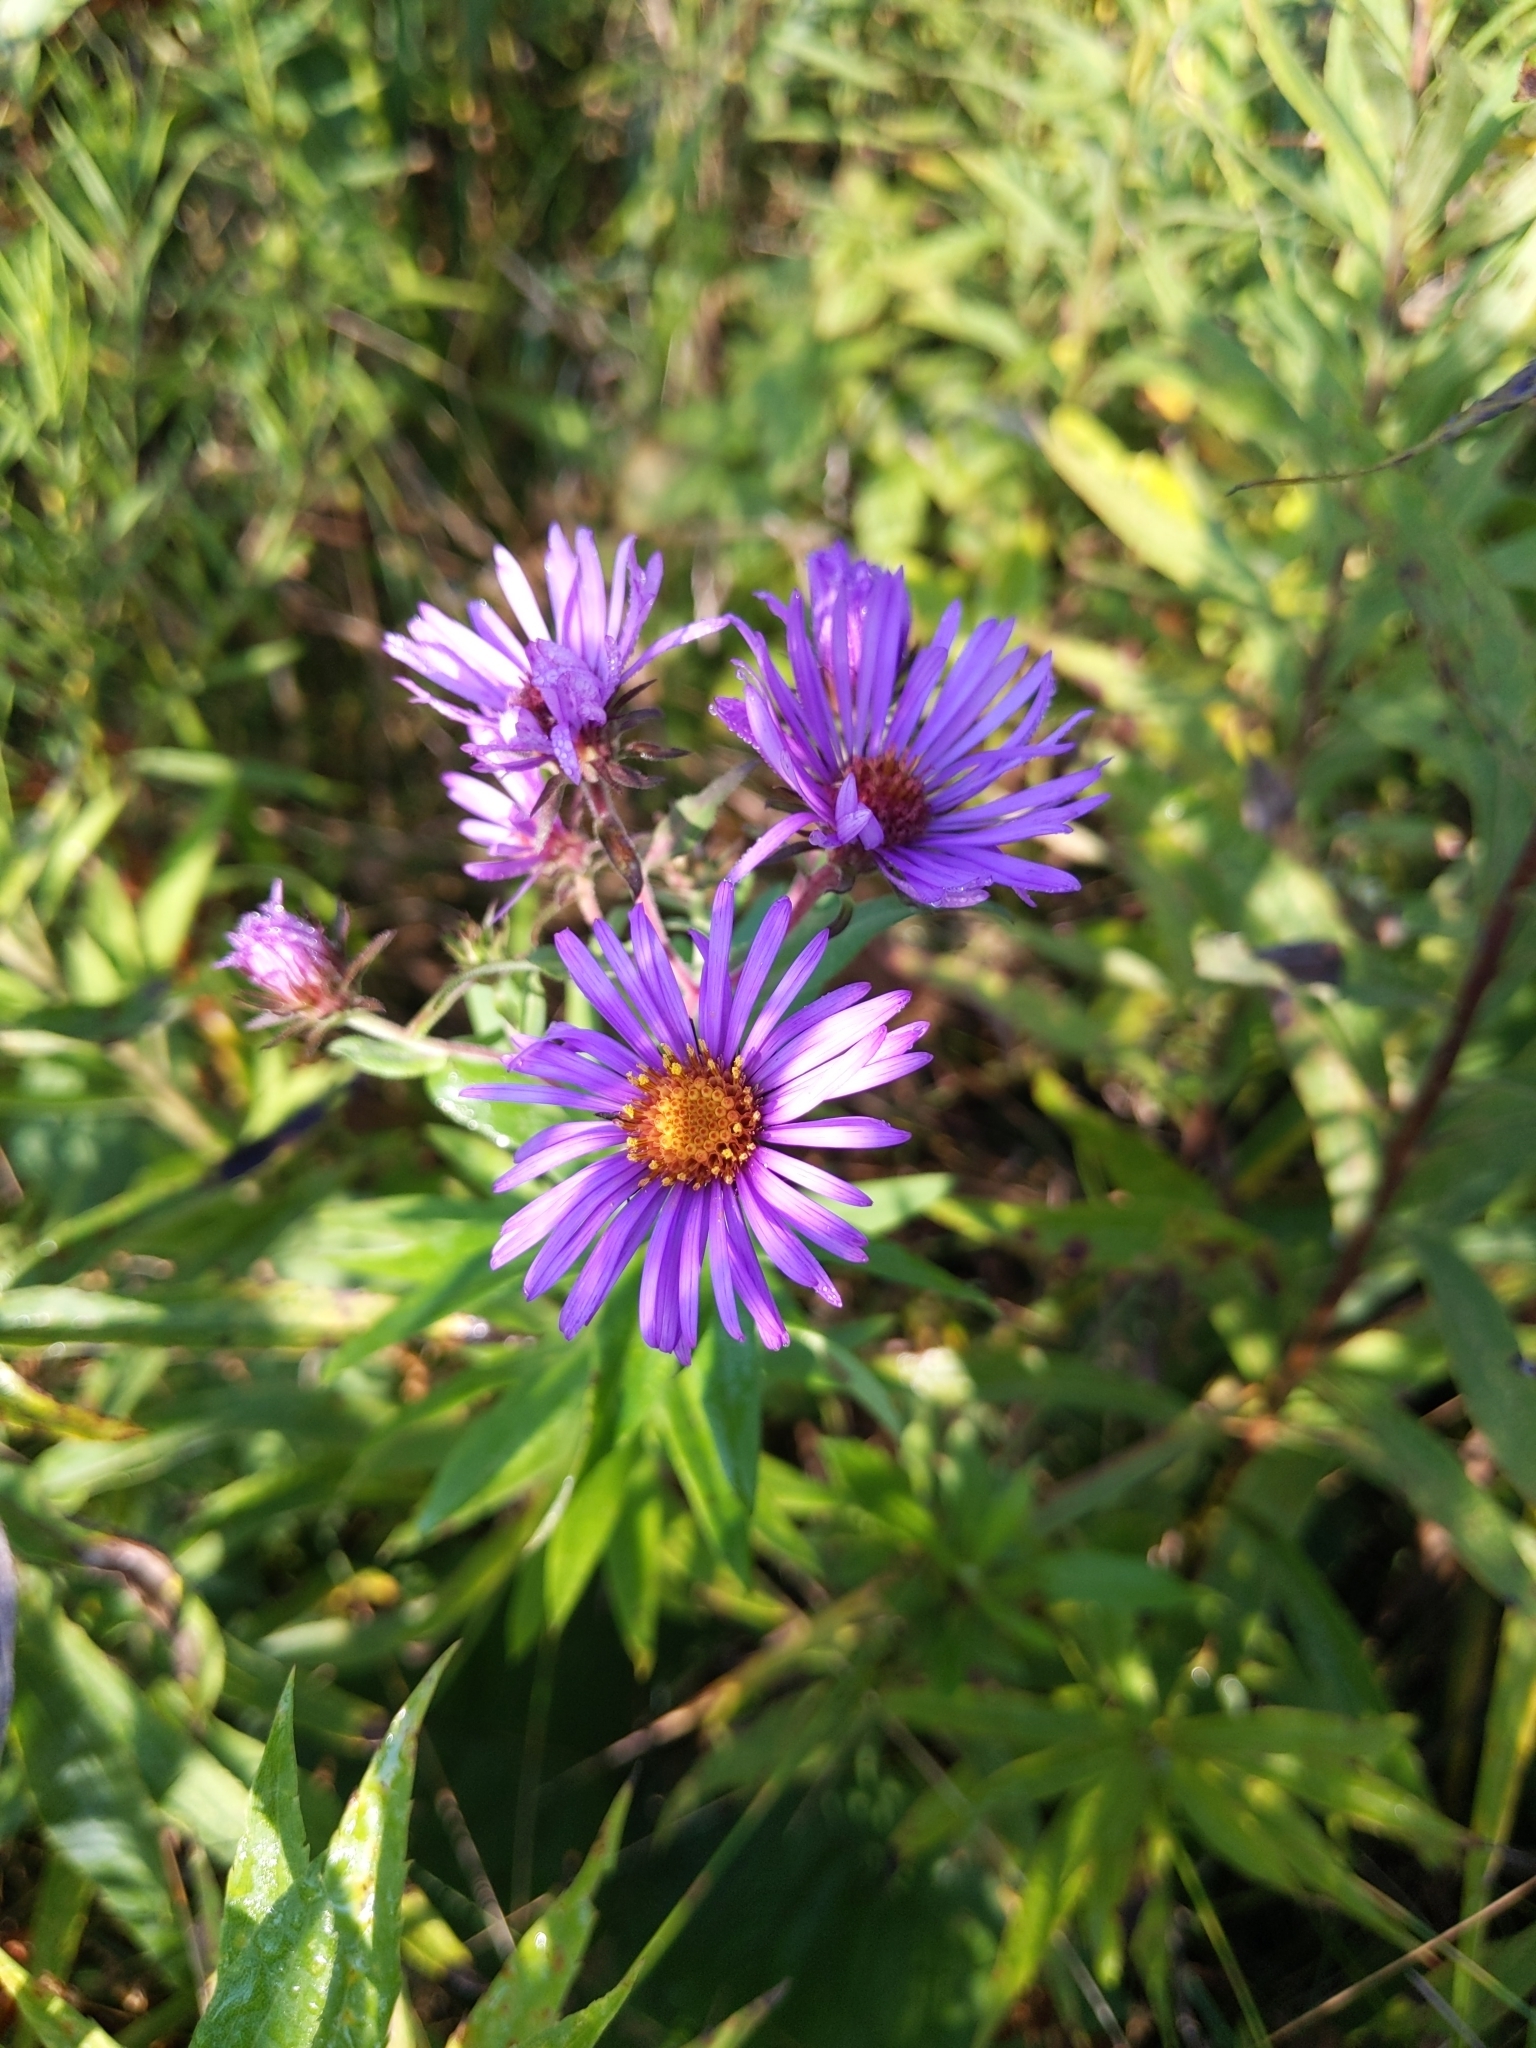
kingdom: Plantae
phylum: Tracheophyta
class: Magnoliopsida
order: Asterales
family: Asteraceae
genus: Symphyotrichum
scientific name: Symphyotrichum novae-angliae
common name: Michaelmas daisy
